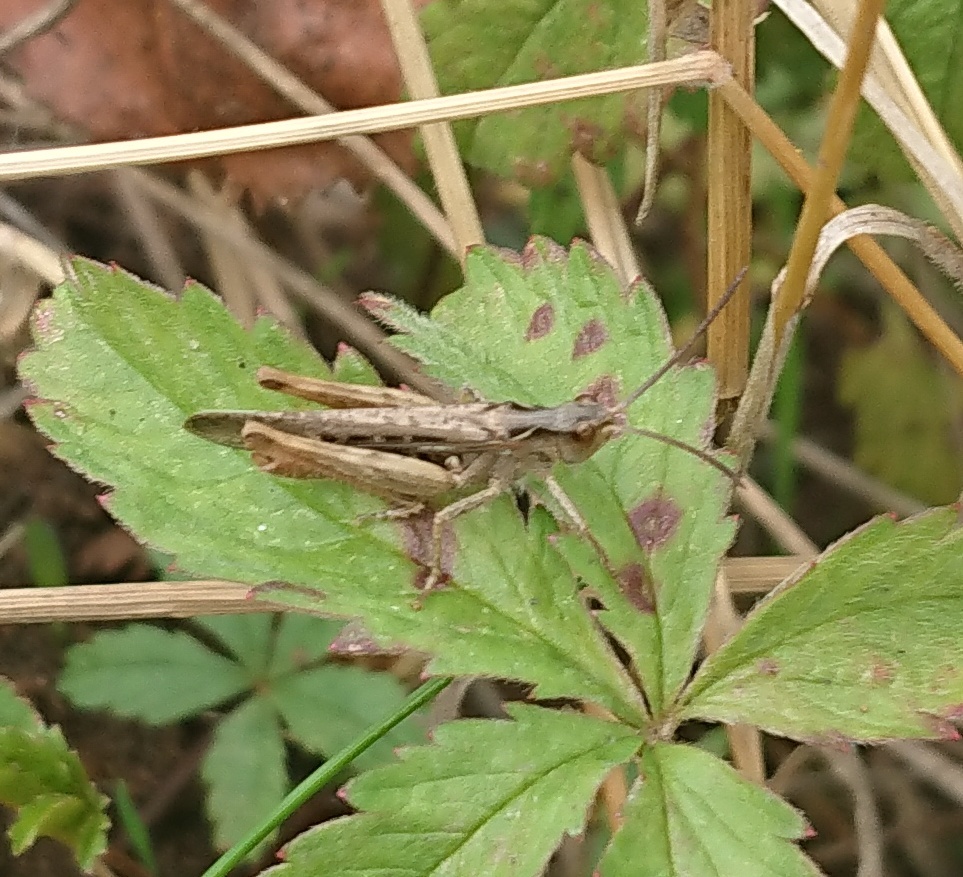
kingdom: Animalia
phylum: Arthropoda
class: Insecta
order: Orthoptera
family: Acrididae
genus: Chorthippus
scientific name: Chorthippus brunneus
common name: Field grasshopper
